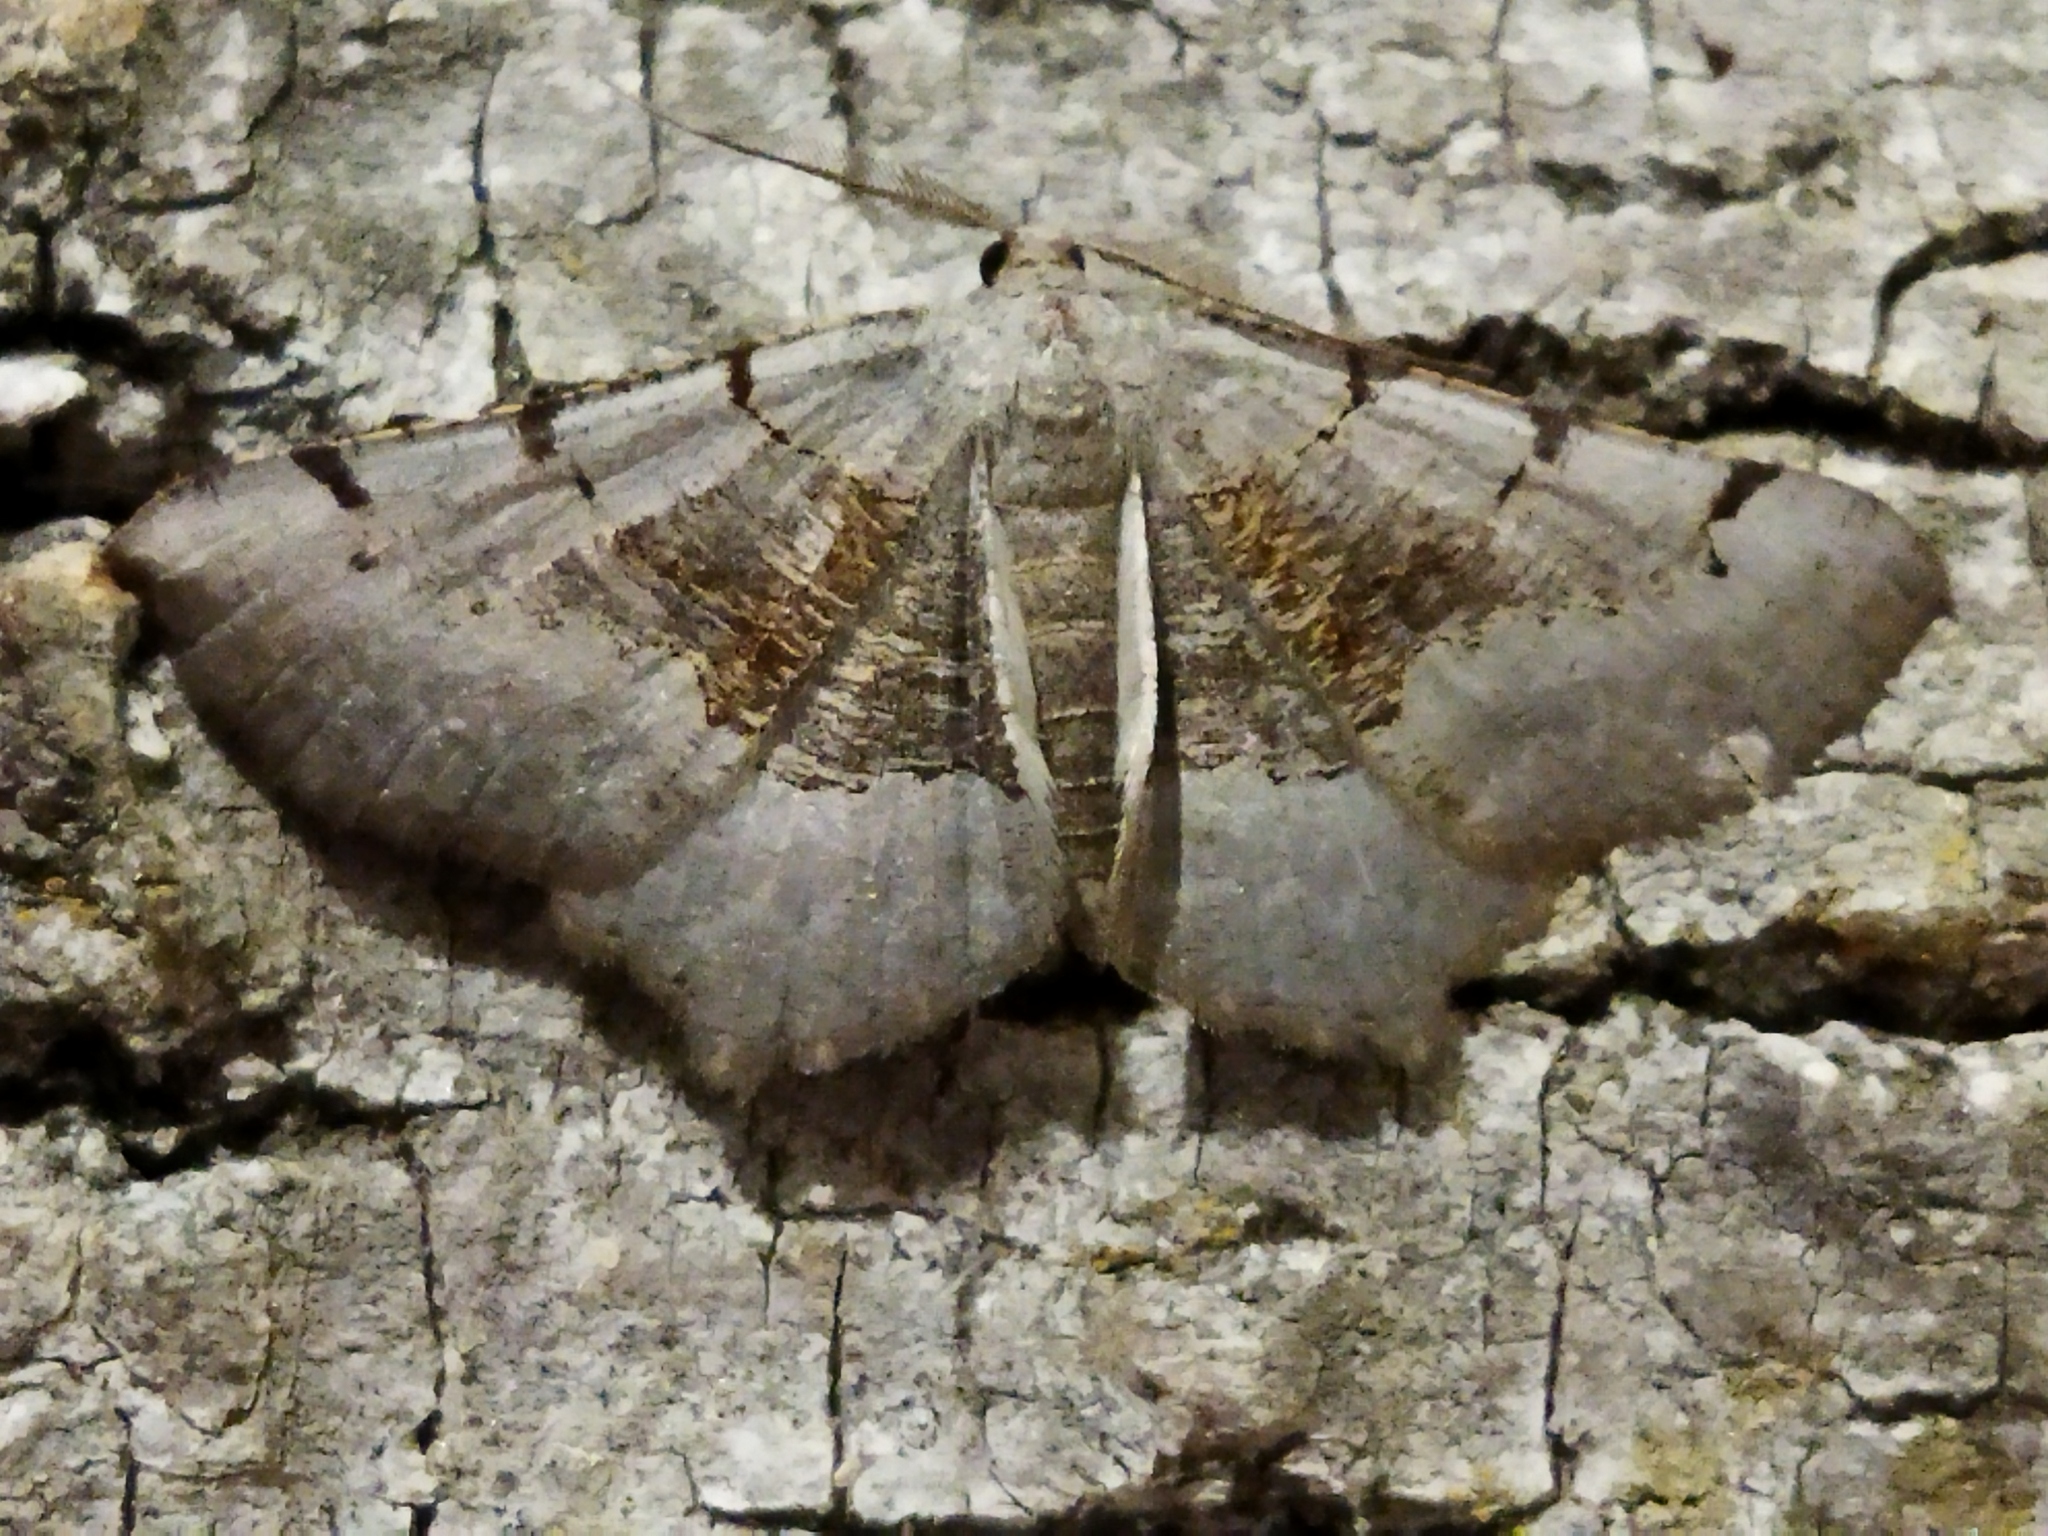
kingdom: Animalia
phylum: Arthropoda
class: Insecta
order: Lepidoptera
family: Geometridae
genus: Neognopharmia
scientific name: Neognopharmia stevenaria
